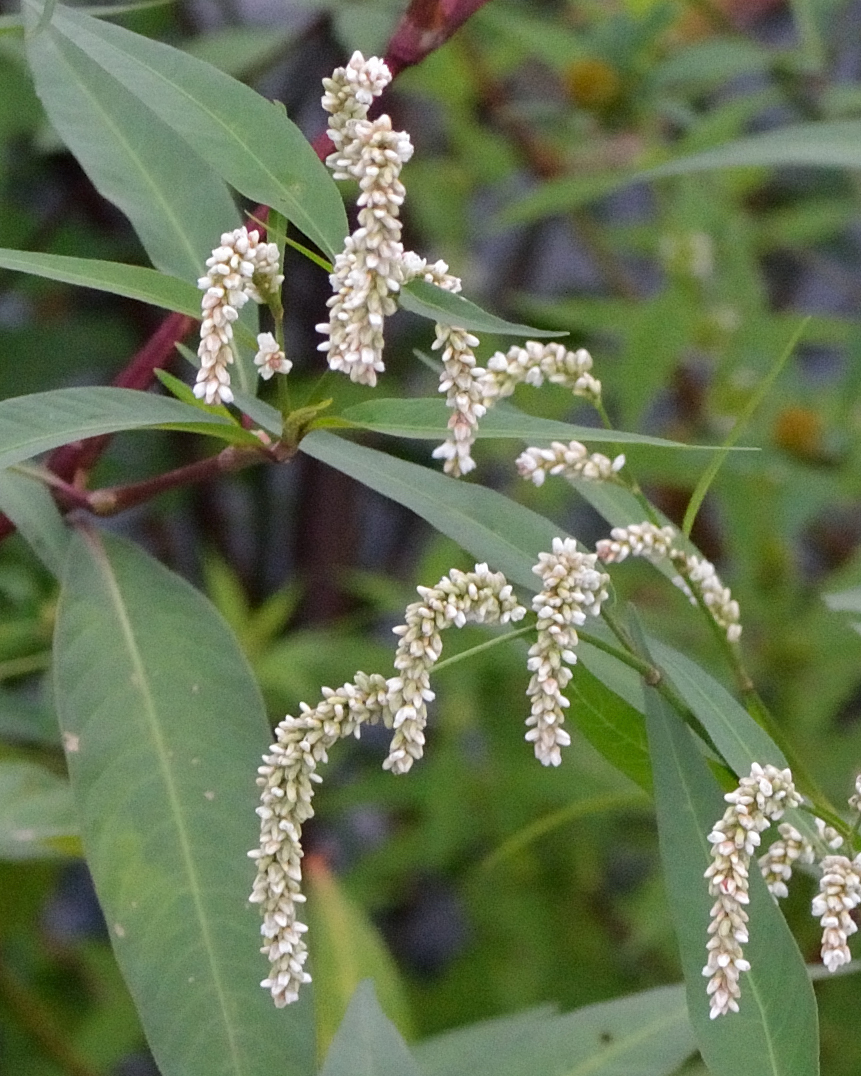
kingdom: Plantae
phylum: Tracheophyta
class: Magnoliopsida
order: Caryophyllales
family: Polygonaceae
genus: Persicaria
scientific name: Persicaria lapathifolia
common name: Curlytop knotweed
